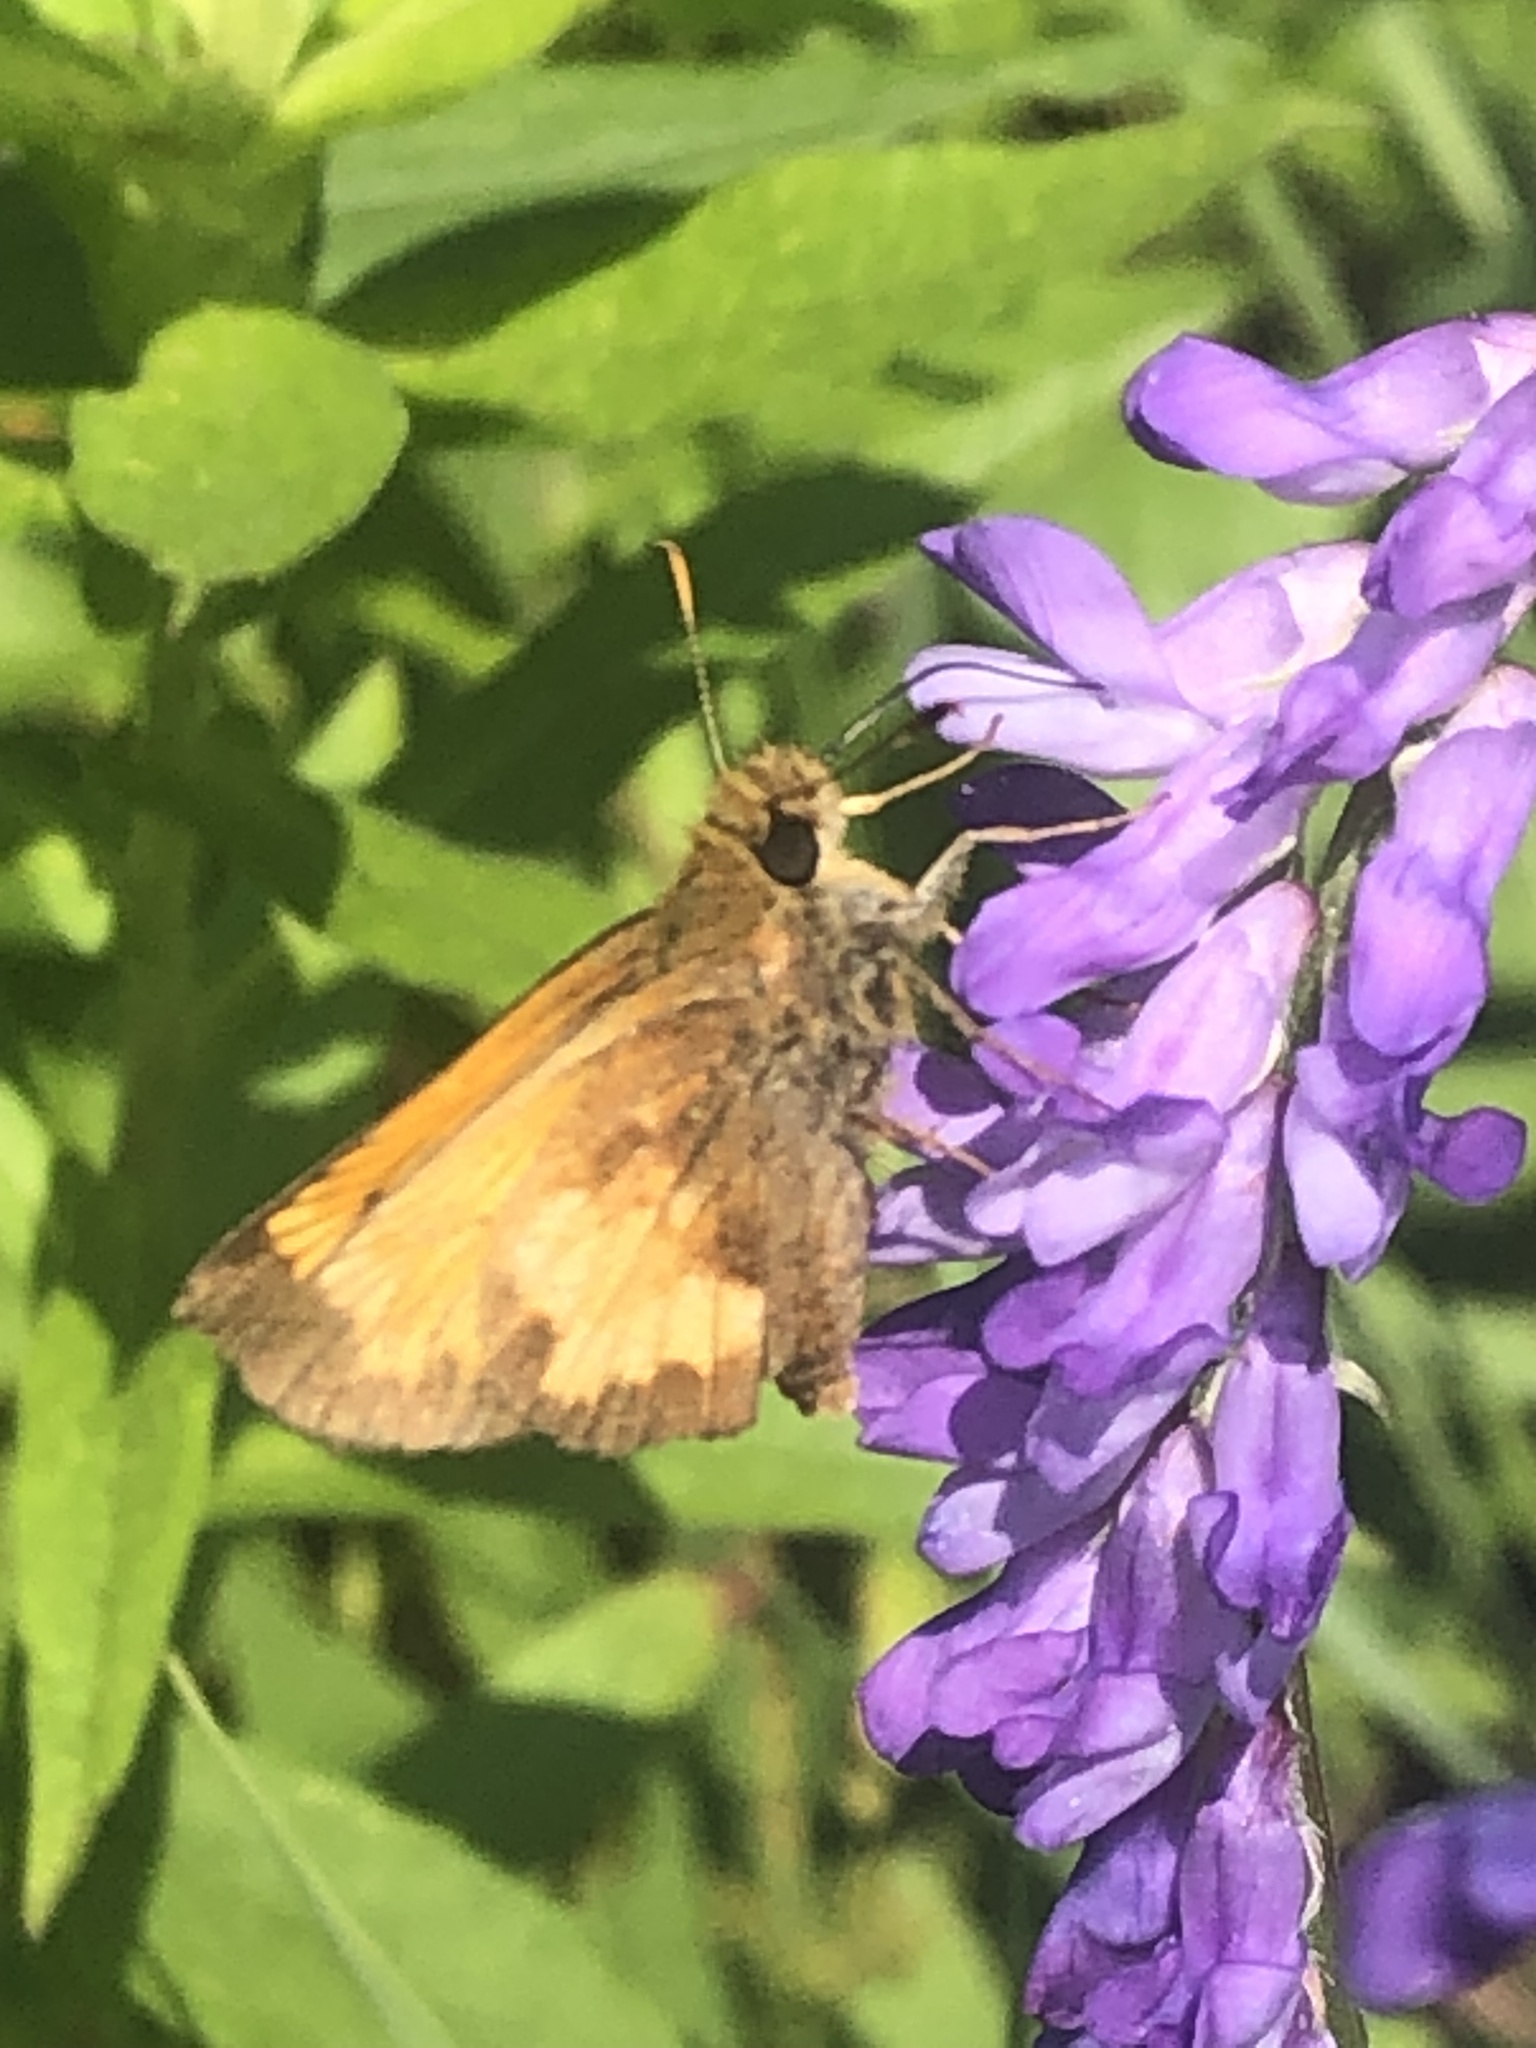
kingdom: Animalia
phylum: Arthropoda
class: Insecta
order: Lepidoptera
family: Hesperiidae
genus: Lon
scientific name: Lon hobomok
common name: Hobomok skipper
